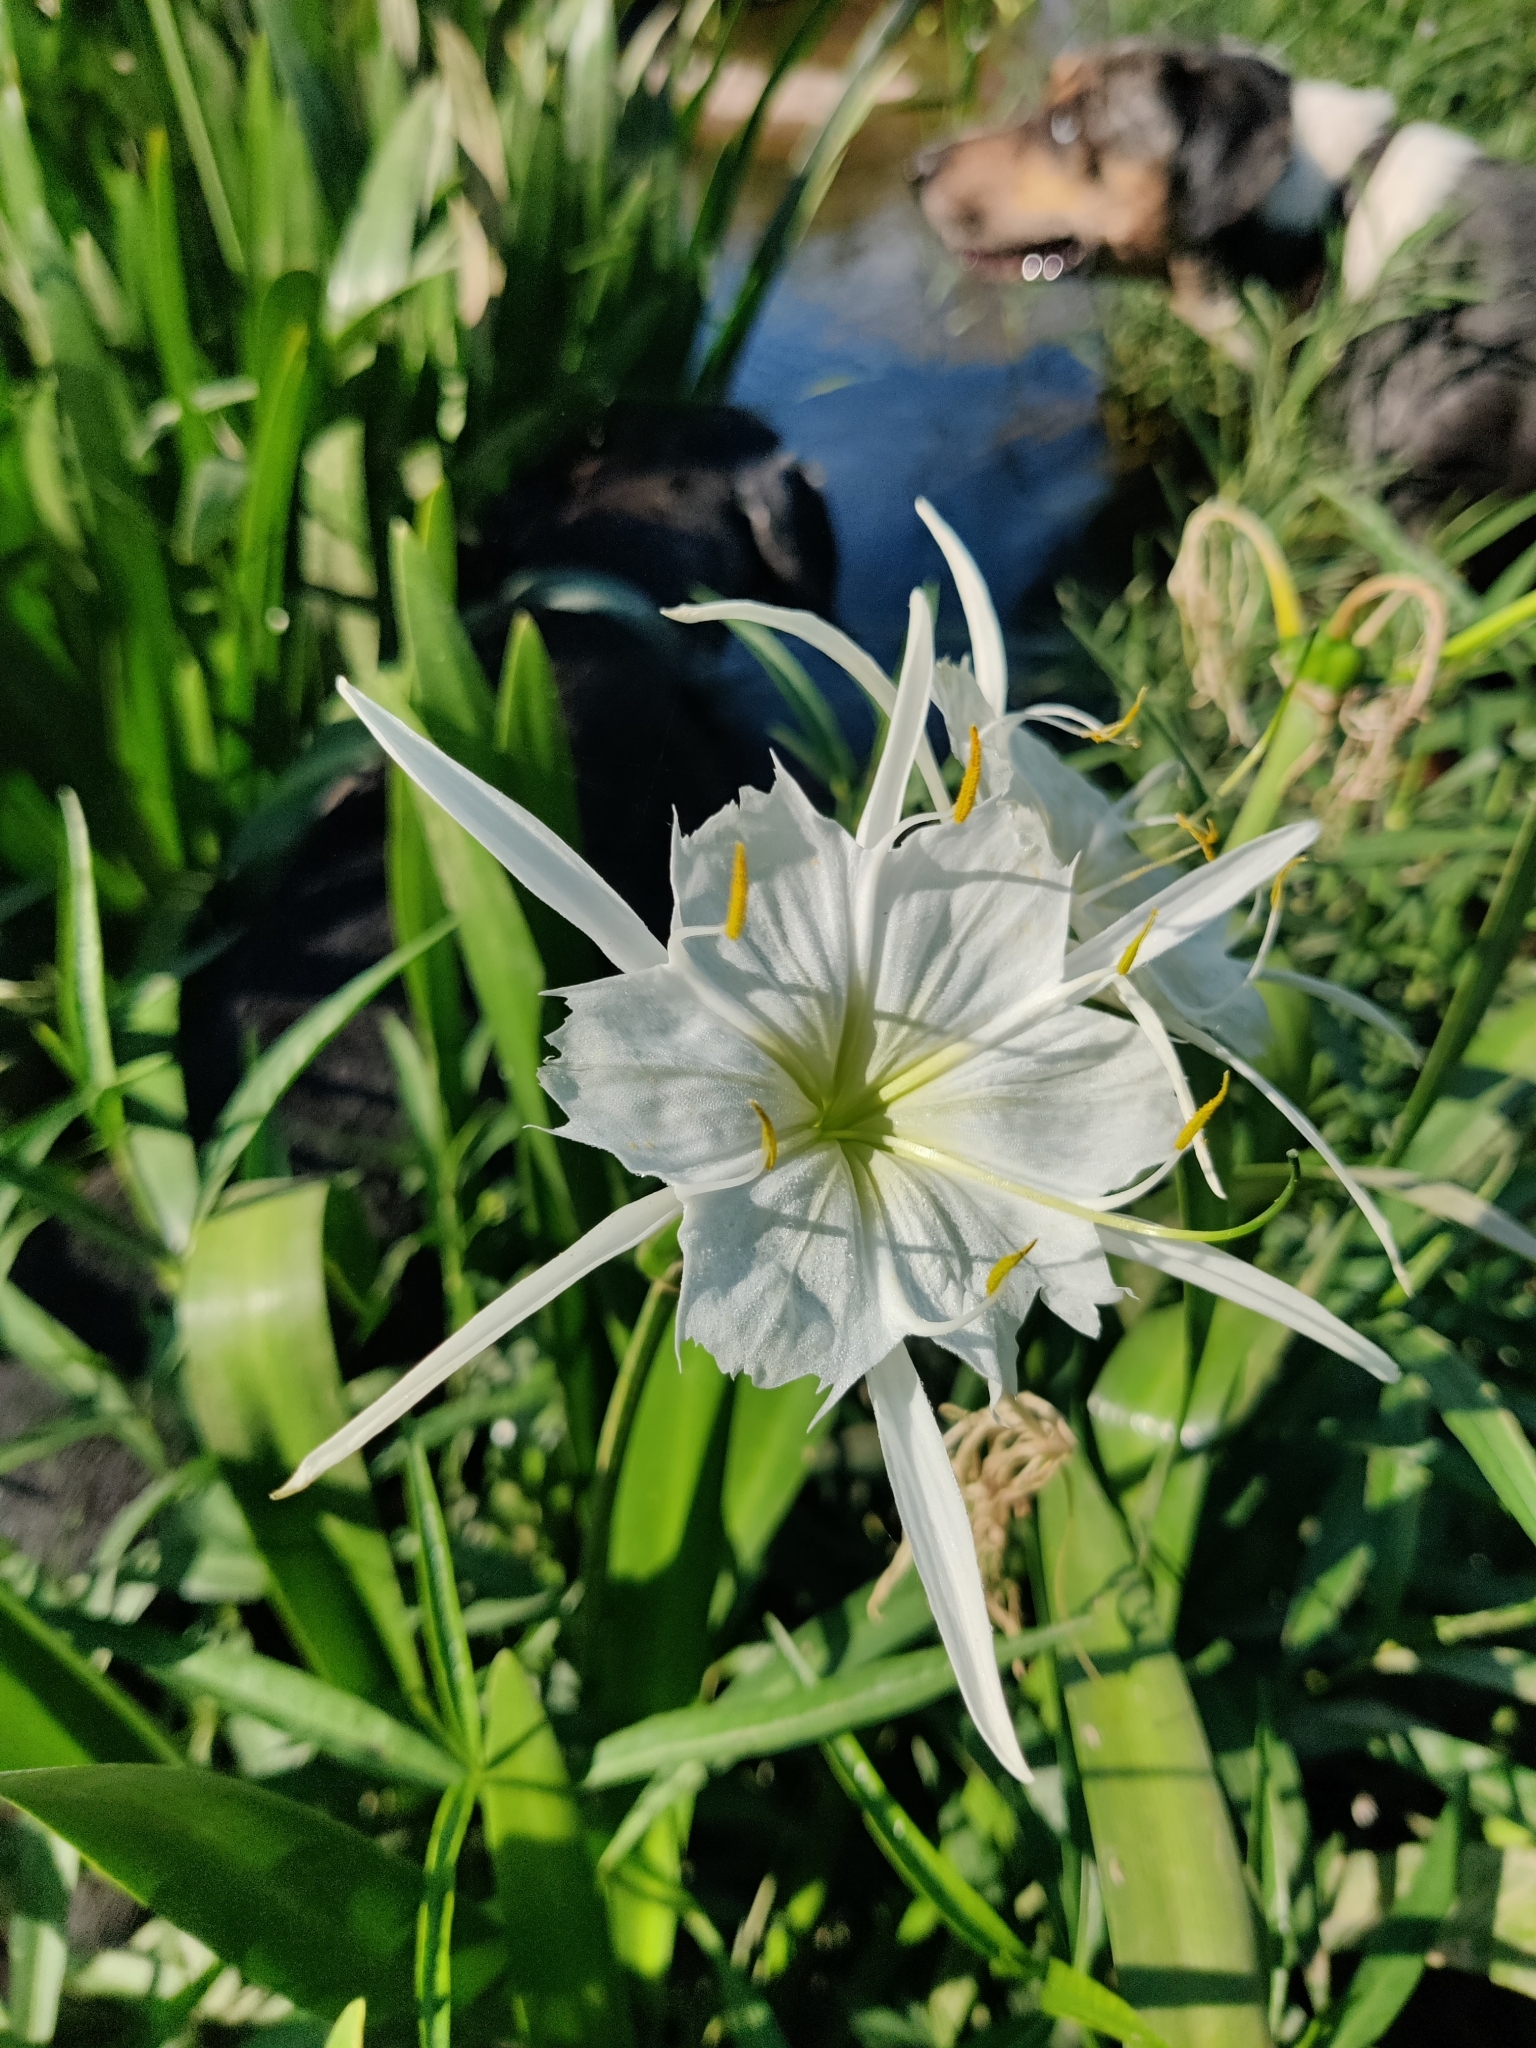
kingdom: Plantae
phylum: Tracheophyta
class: Liliopsida
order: Asparagales
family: Amaryllidaceae
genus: Hymenocallis
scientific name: Hymenocallis coronaria
